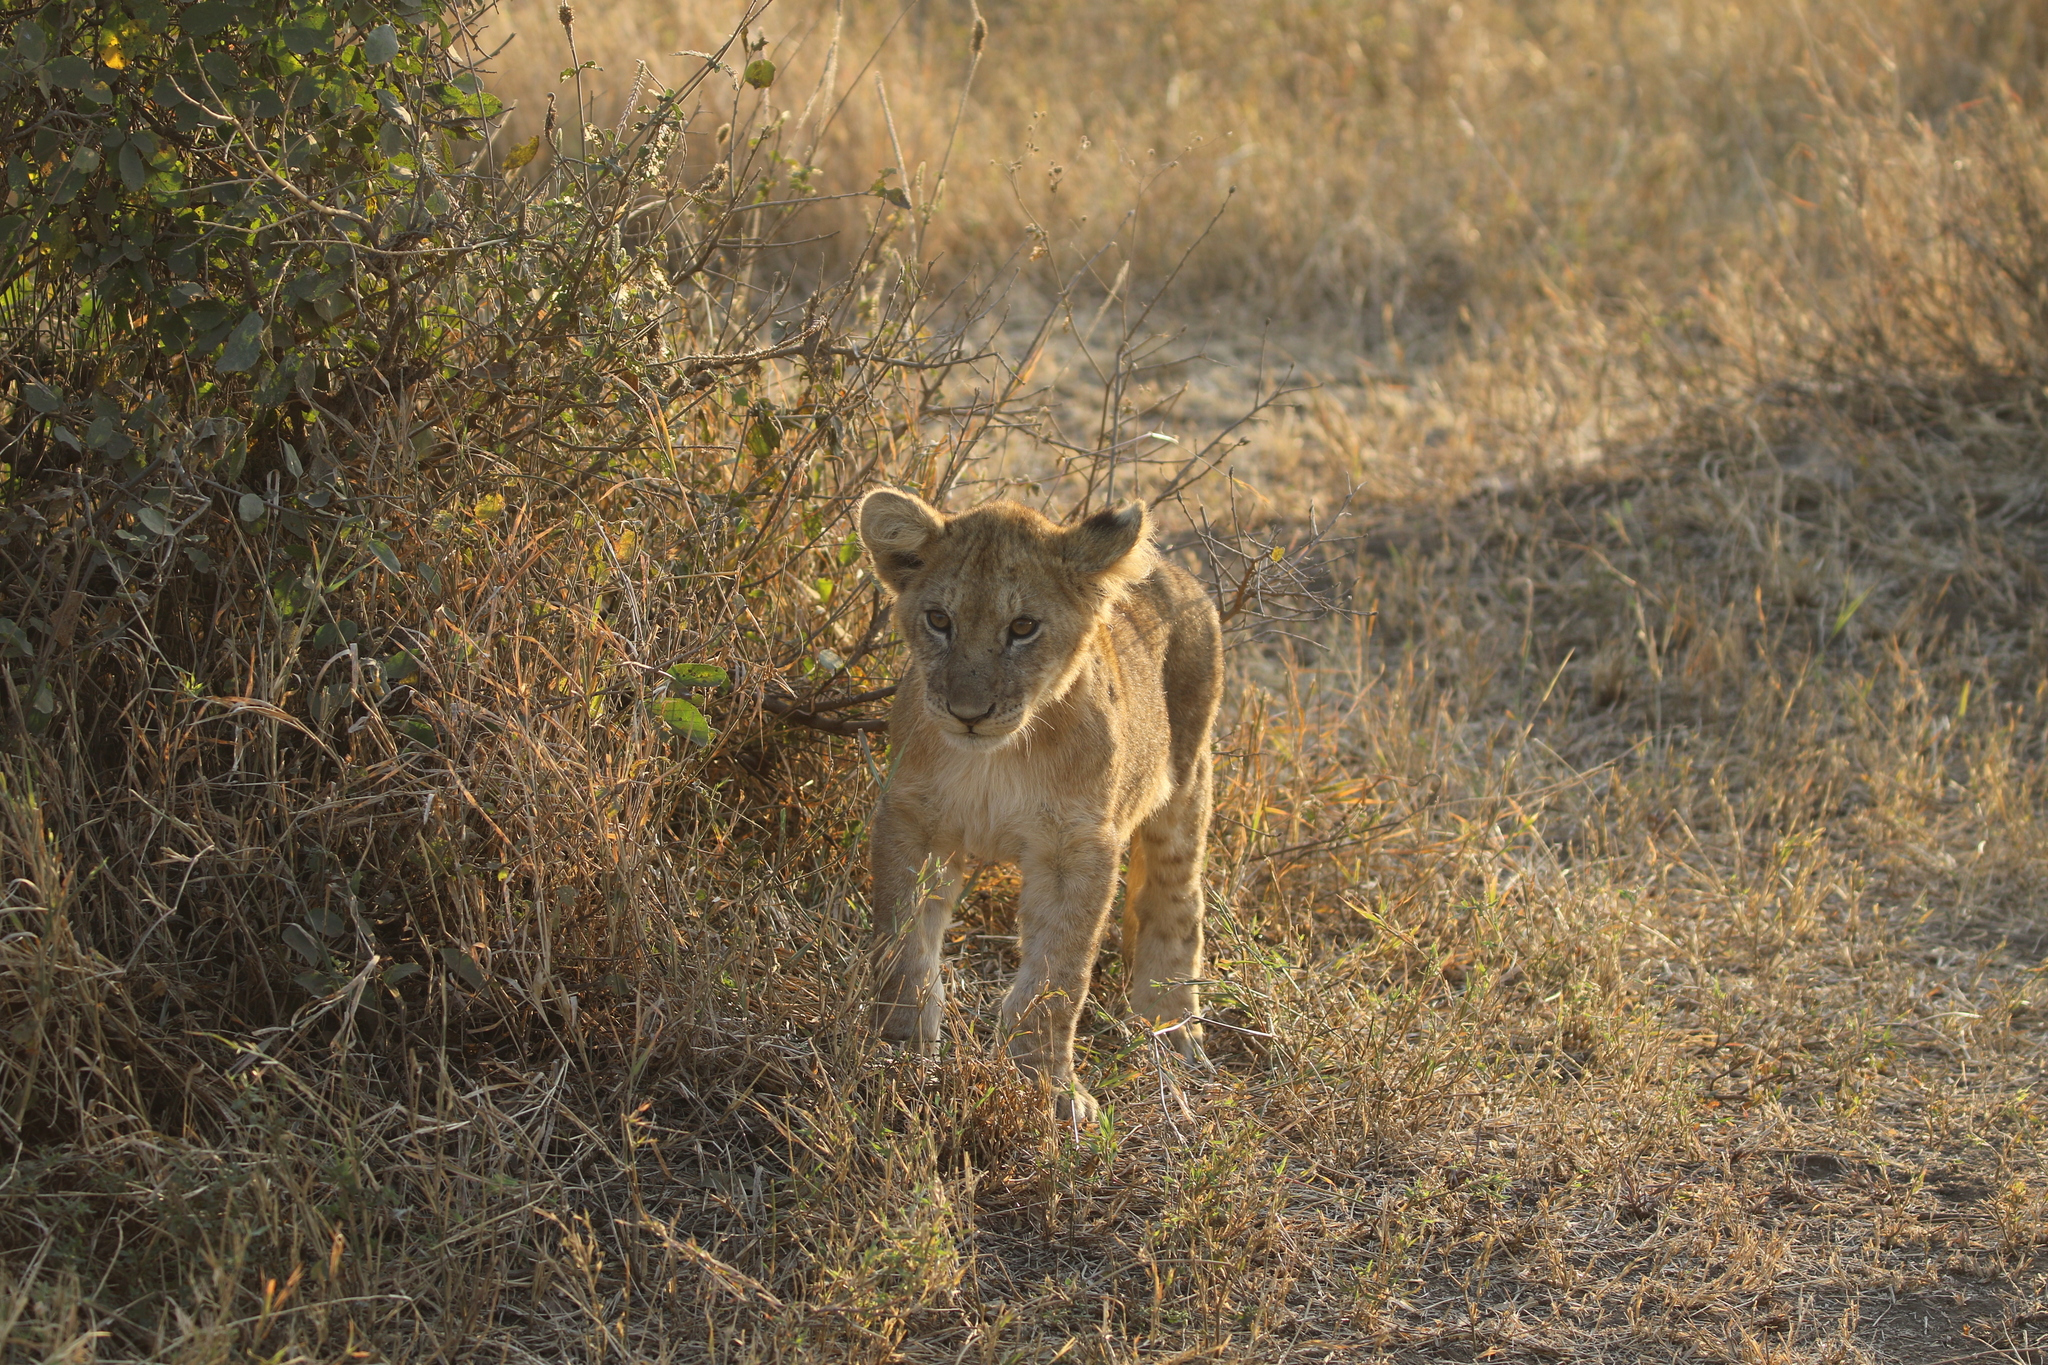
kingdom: Animalia
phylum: Chordata
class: Mammalia
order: Carnivora
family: Felidae
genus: Panthera
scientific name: Panthera leo
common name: Lion
